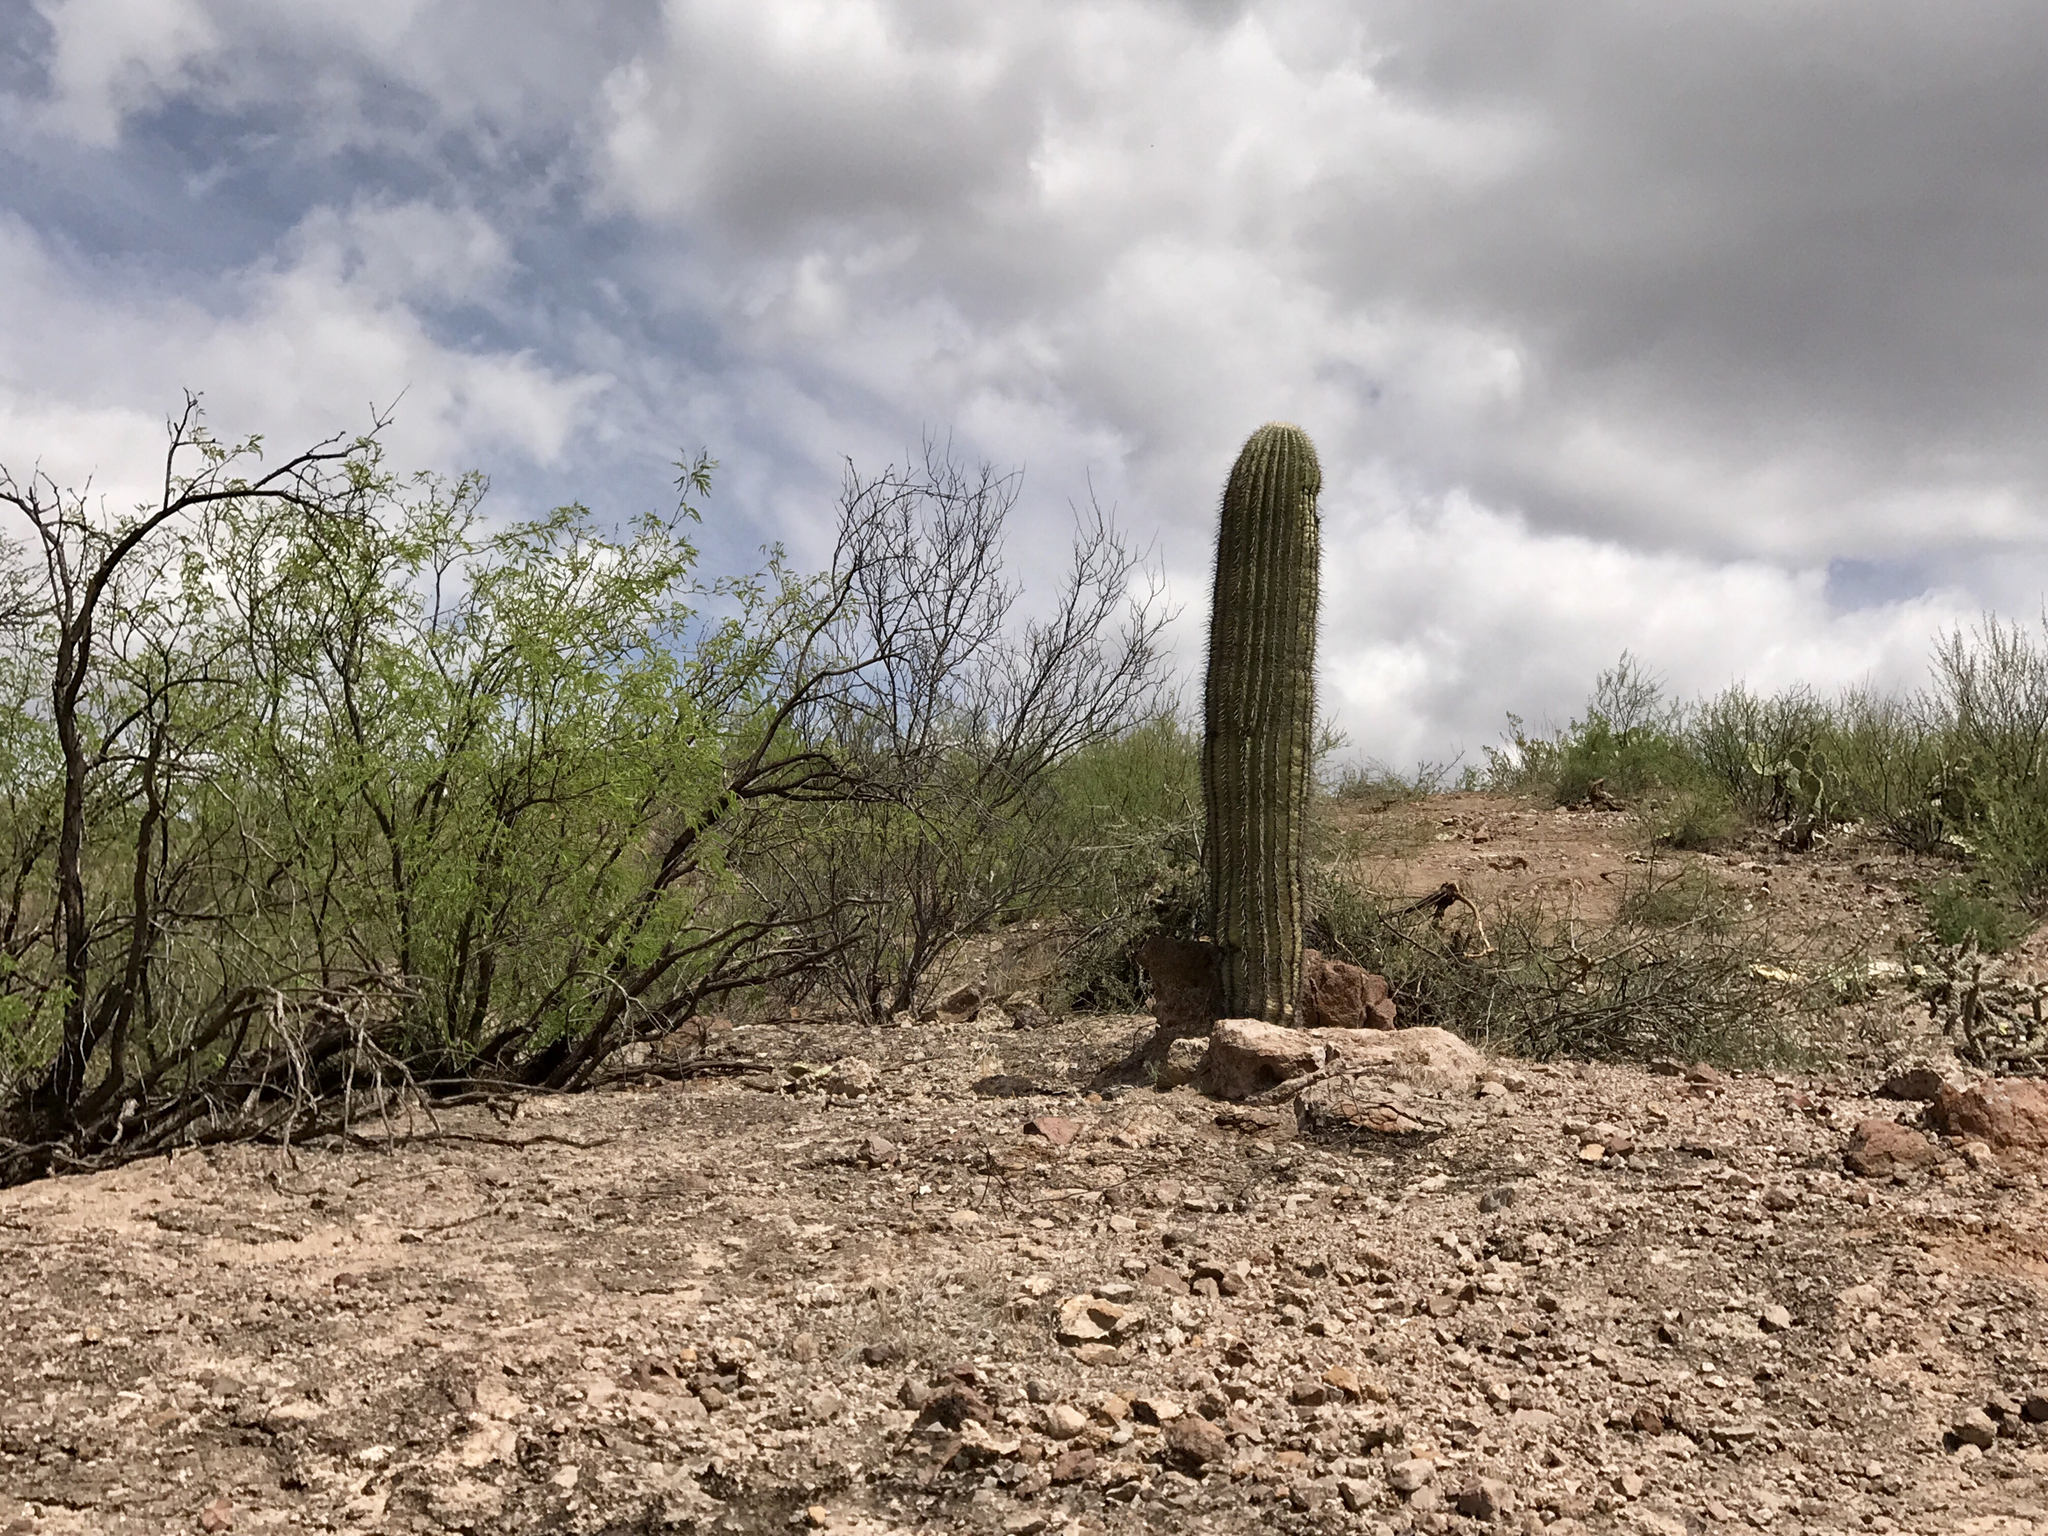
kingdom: Plantae
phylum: Tracheophyta
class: Magnoliopsida
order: Caryophyllales
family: Cactaceae
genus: Carnegiea
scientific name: Carnegiea gigantea
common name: Saguaro
